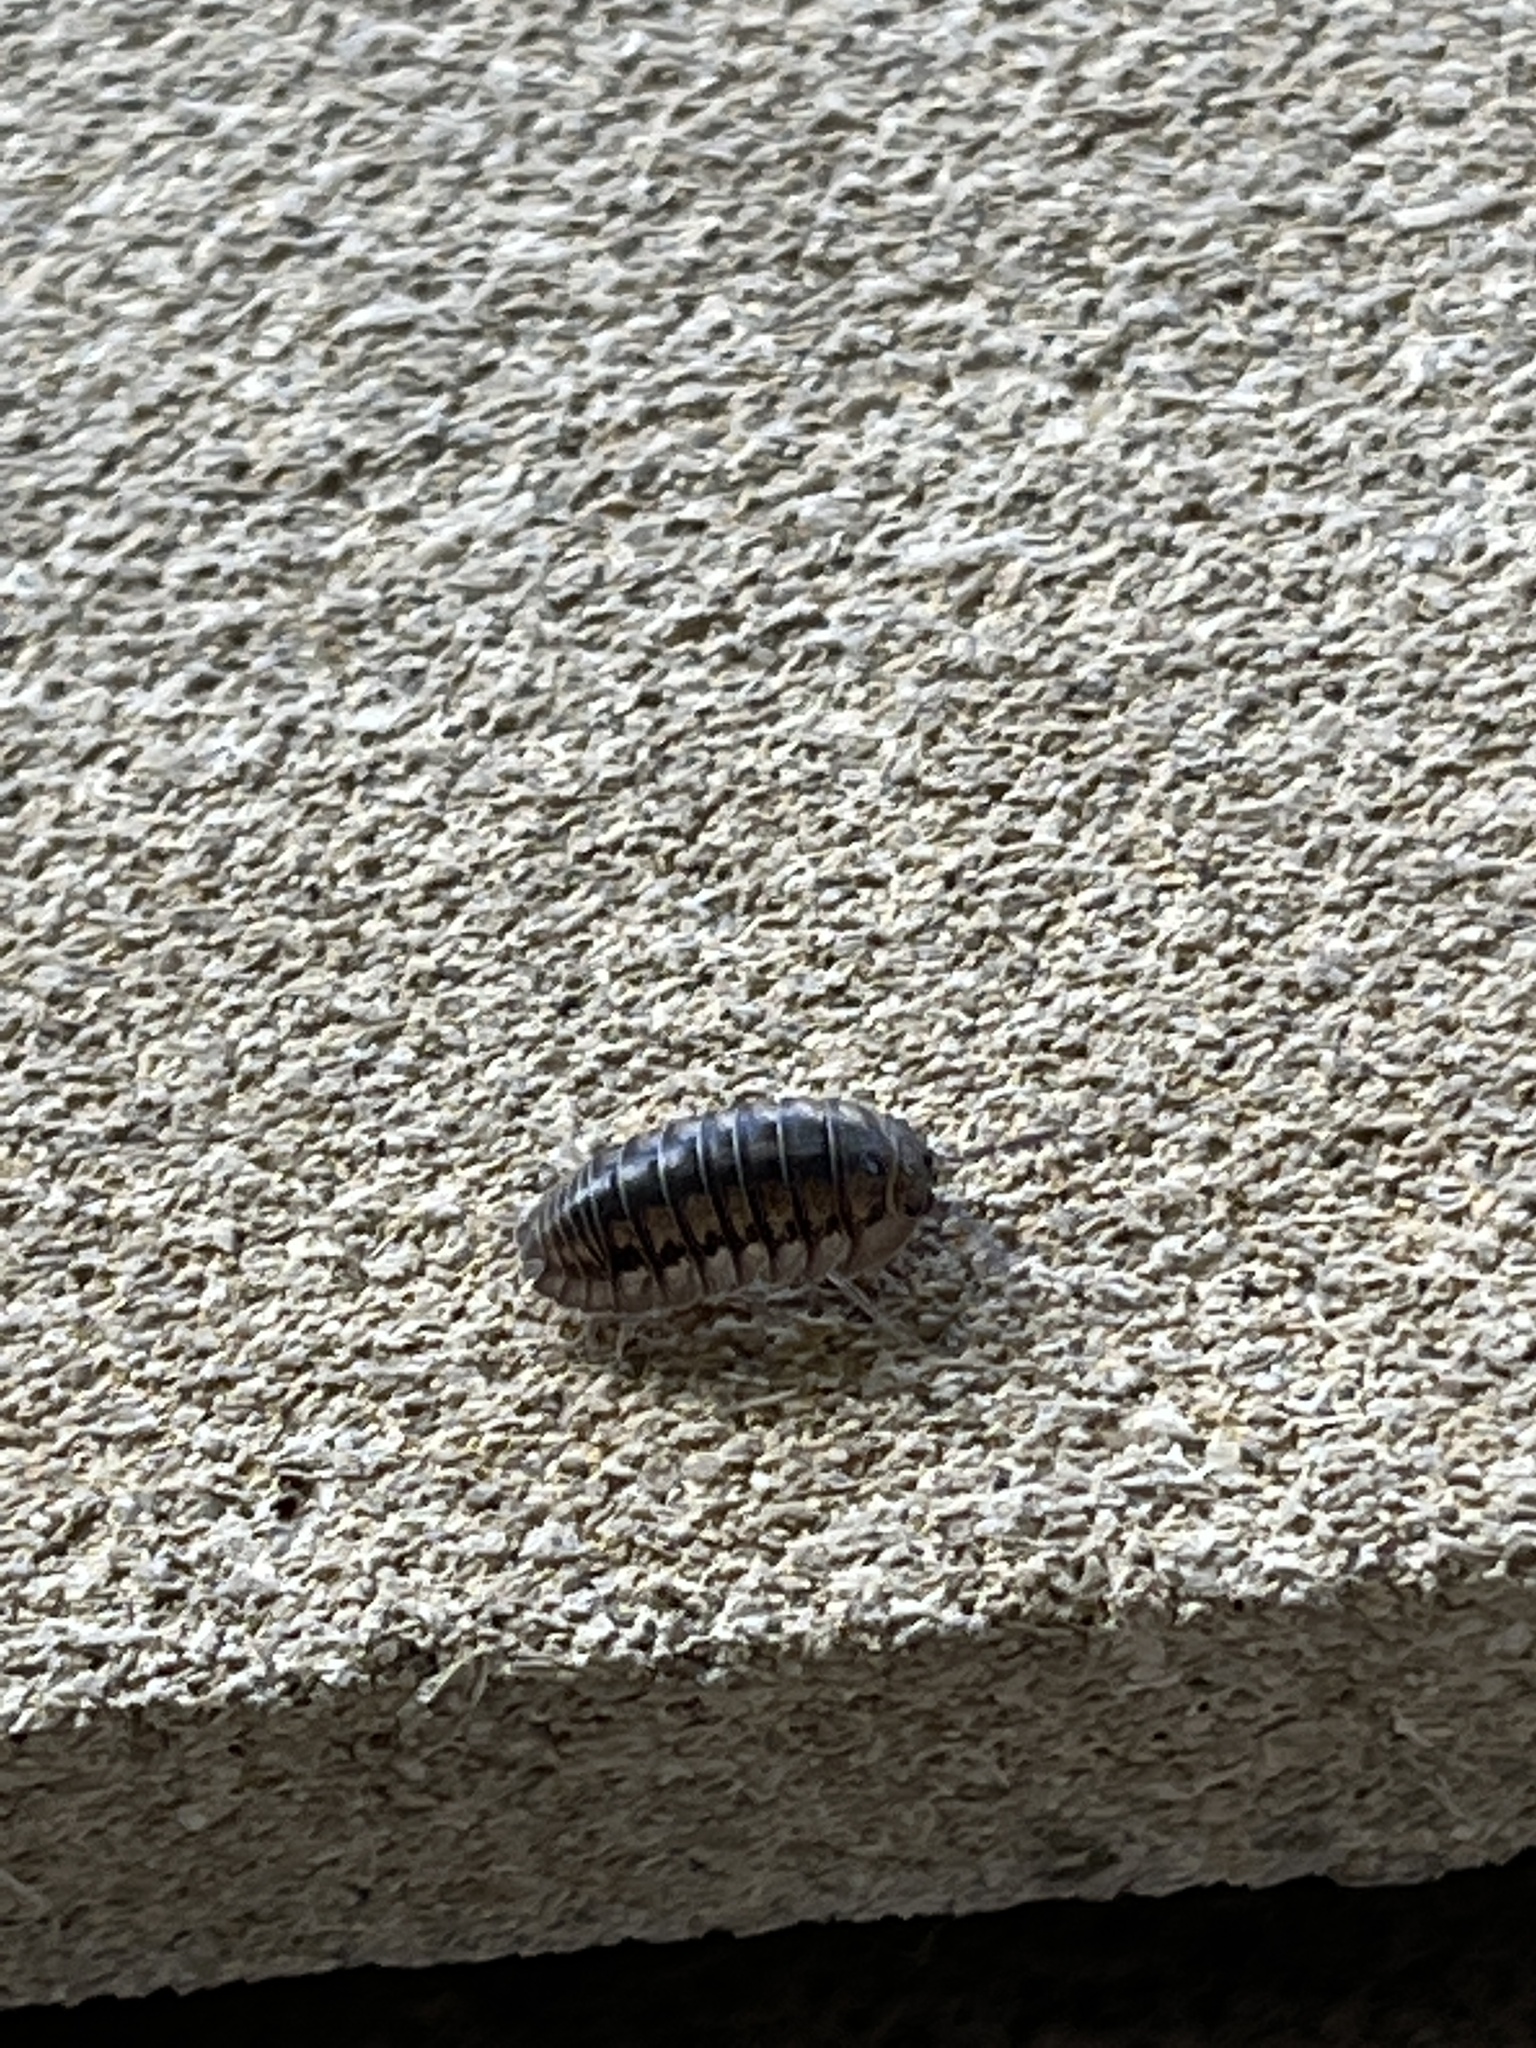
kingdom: Animalia
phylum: Arthropoda
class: Malacostraca
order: Isopoda
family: Armadillidiidae
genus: Armadillidium
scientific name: Armadillidium nasatum
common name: Isopod
